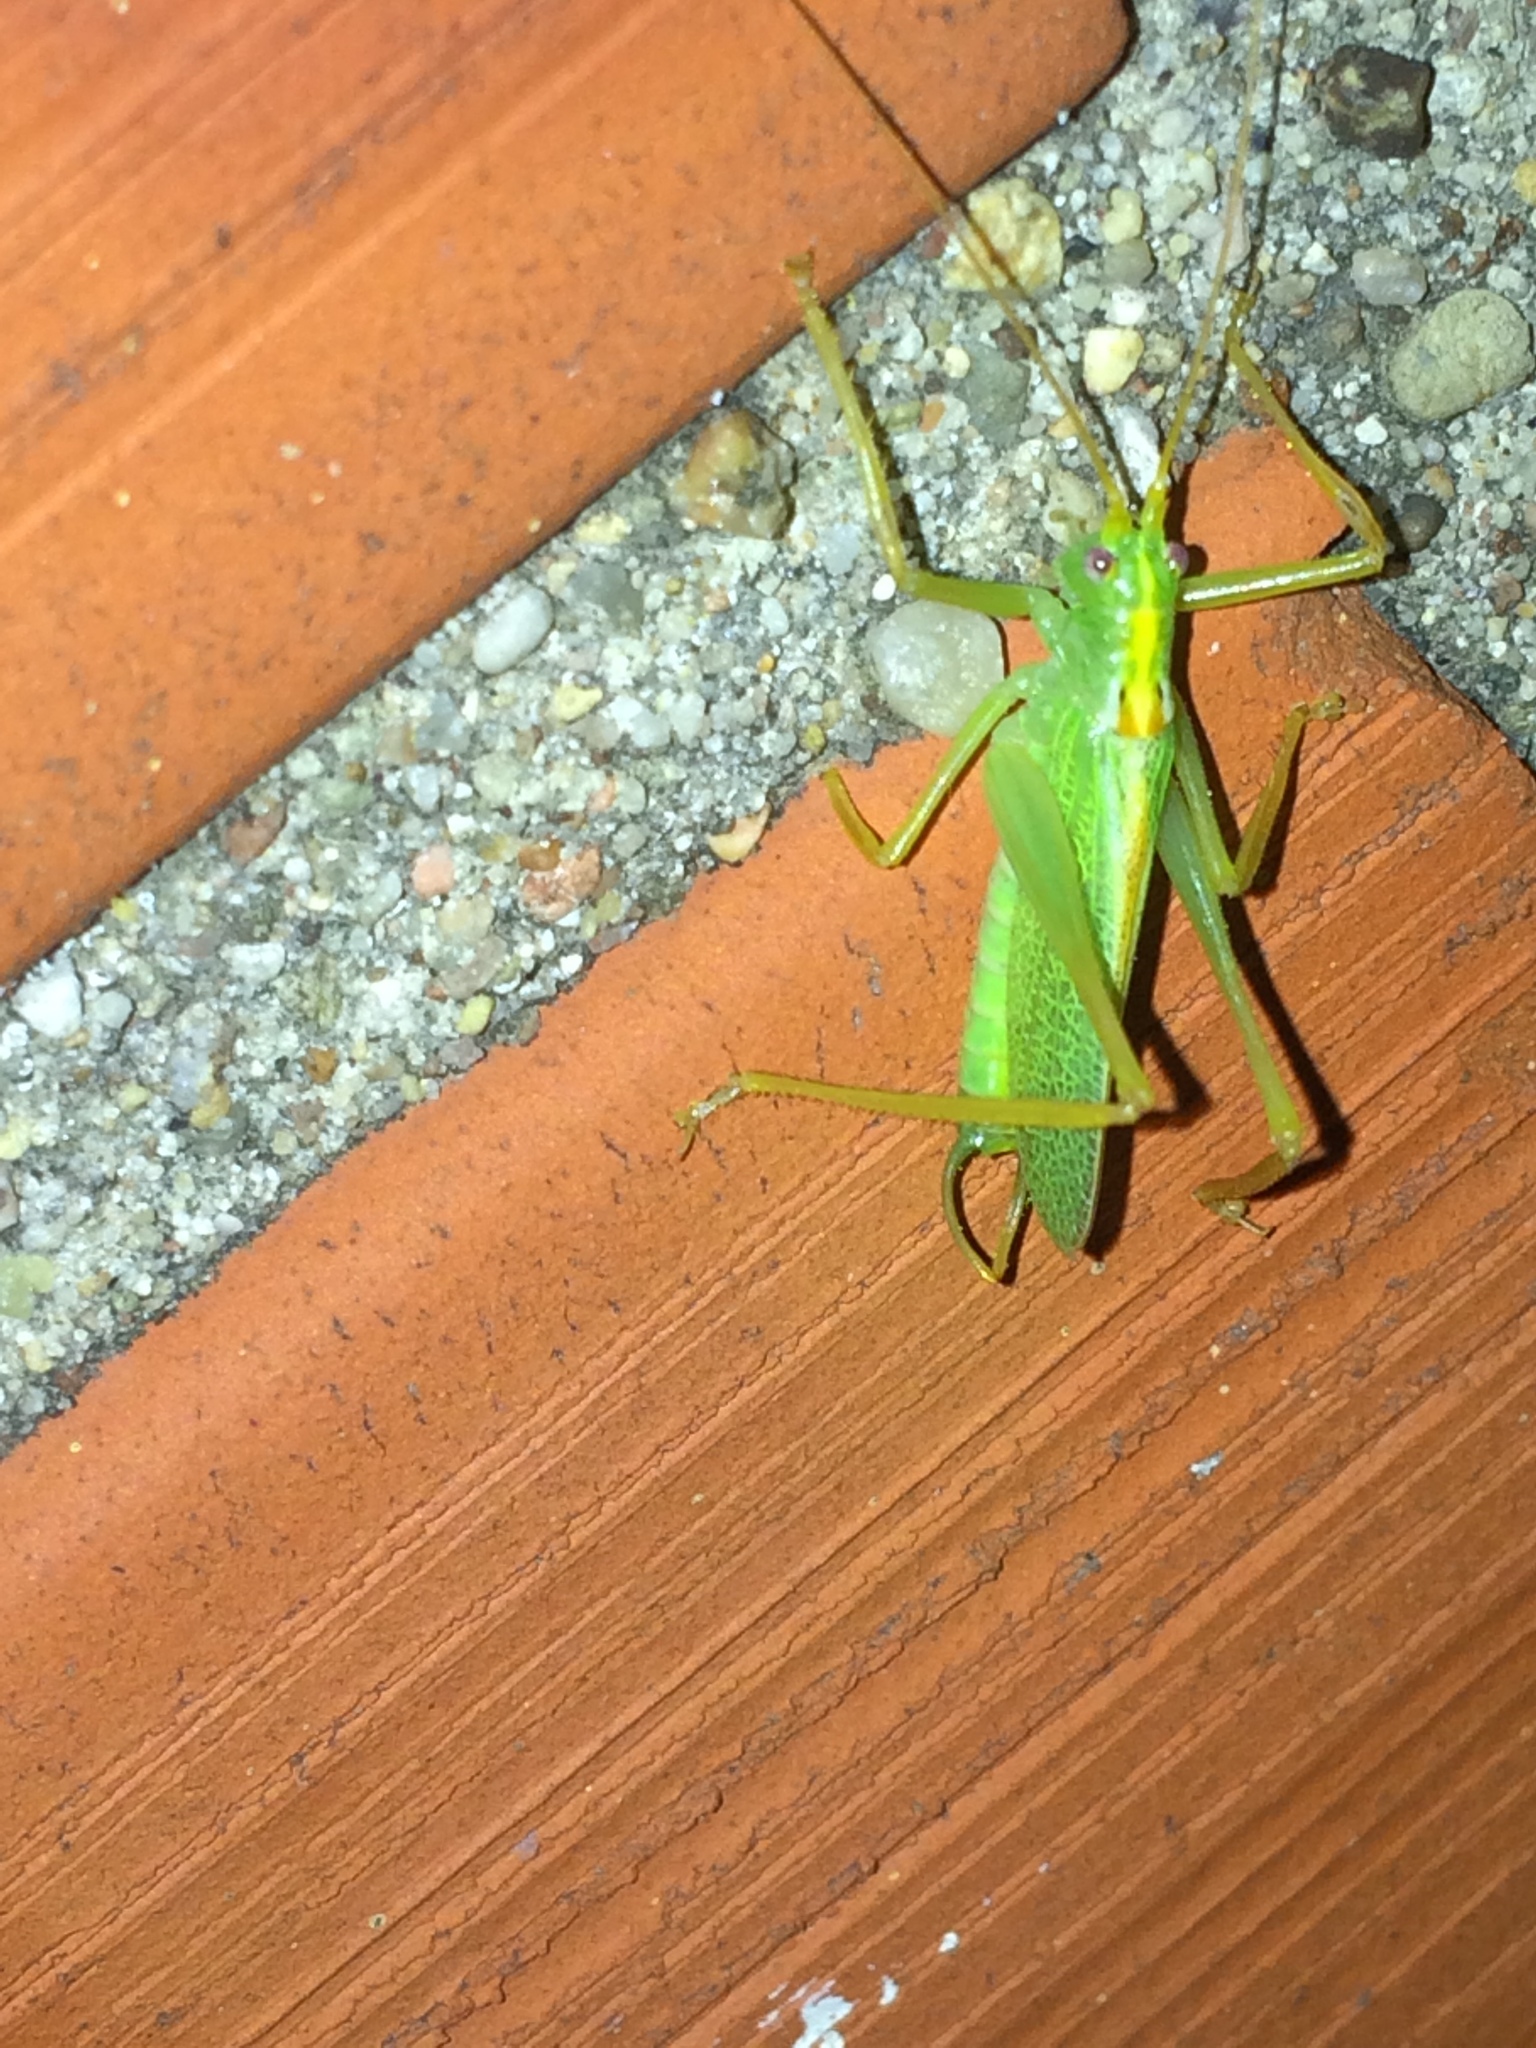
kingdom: Animalia
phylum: Arthropoda
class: Insecta
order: Orthoptera
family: Tettigoniidae
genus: Meconema
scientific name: Meconema thalassinum
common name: Oak bush-cricket
